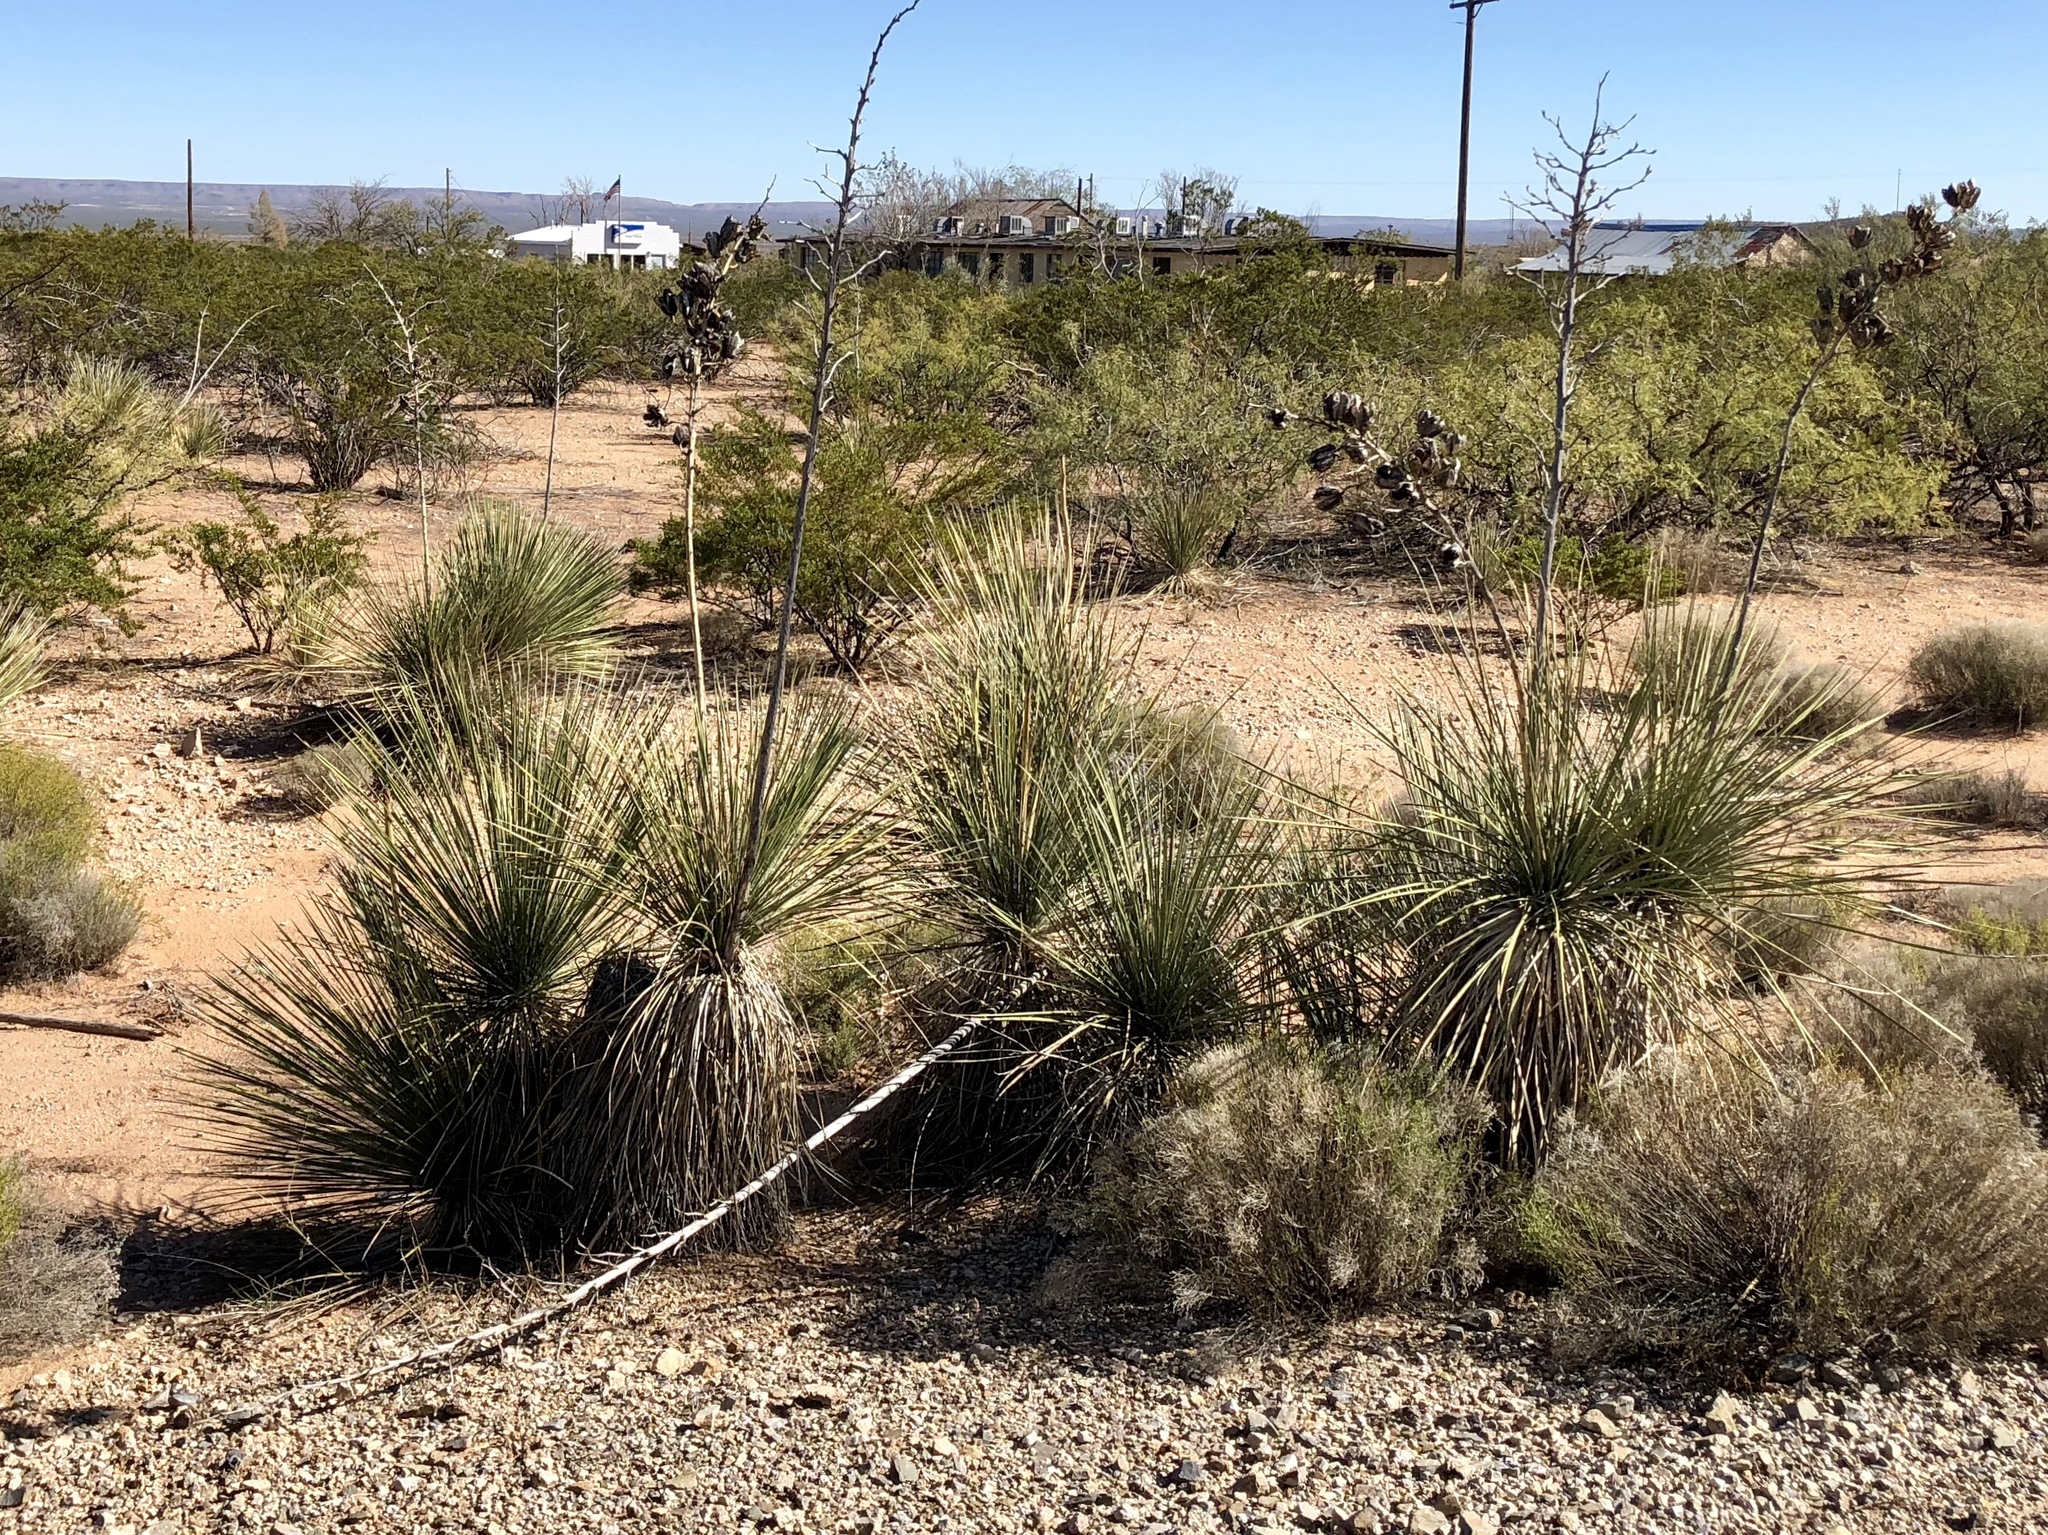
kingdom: Plantae
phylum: Tracheophyta
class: Liliopsida
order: Asparagales
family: Asparagaceae
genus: Yucca
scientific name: Yucca elata
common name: Palmella
